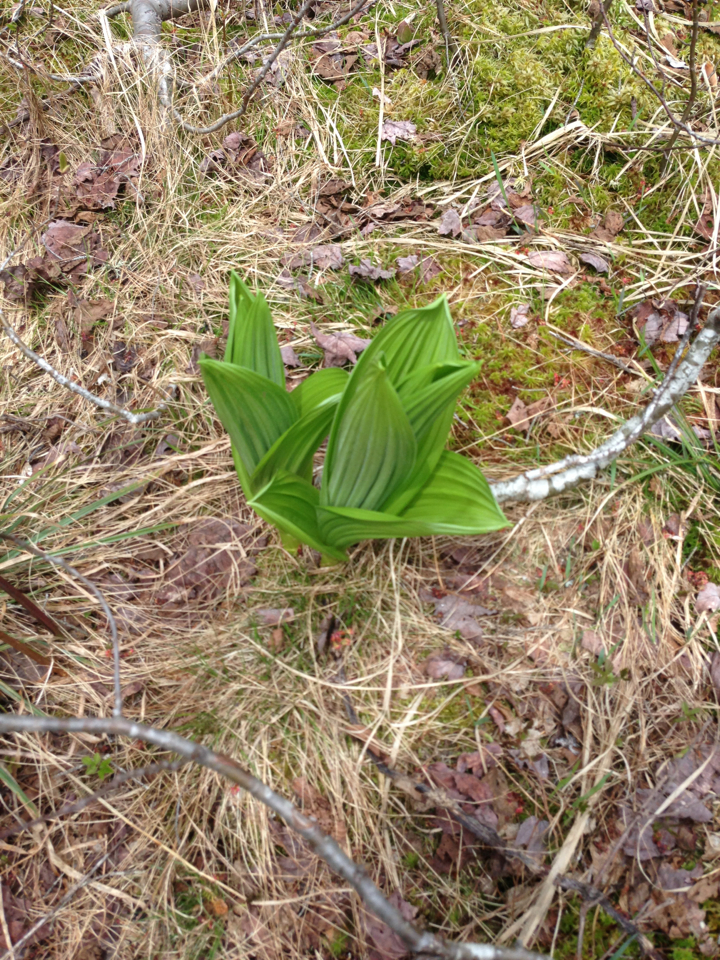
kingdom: Plantae
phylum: Tracheophyta
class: Liliopsida
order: Liliales
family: Melanthiaceae
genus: Veratrum
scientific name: Veratrum viride
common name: American false hellebore
